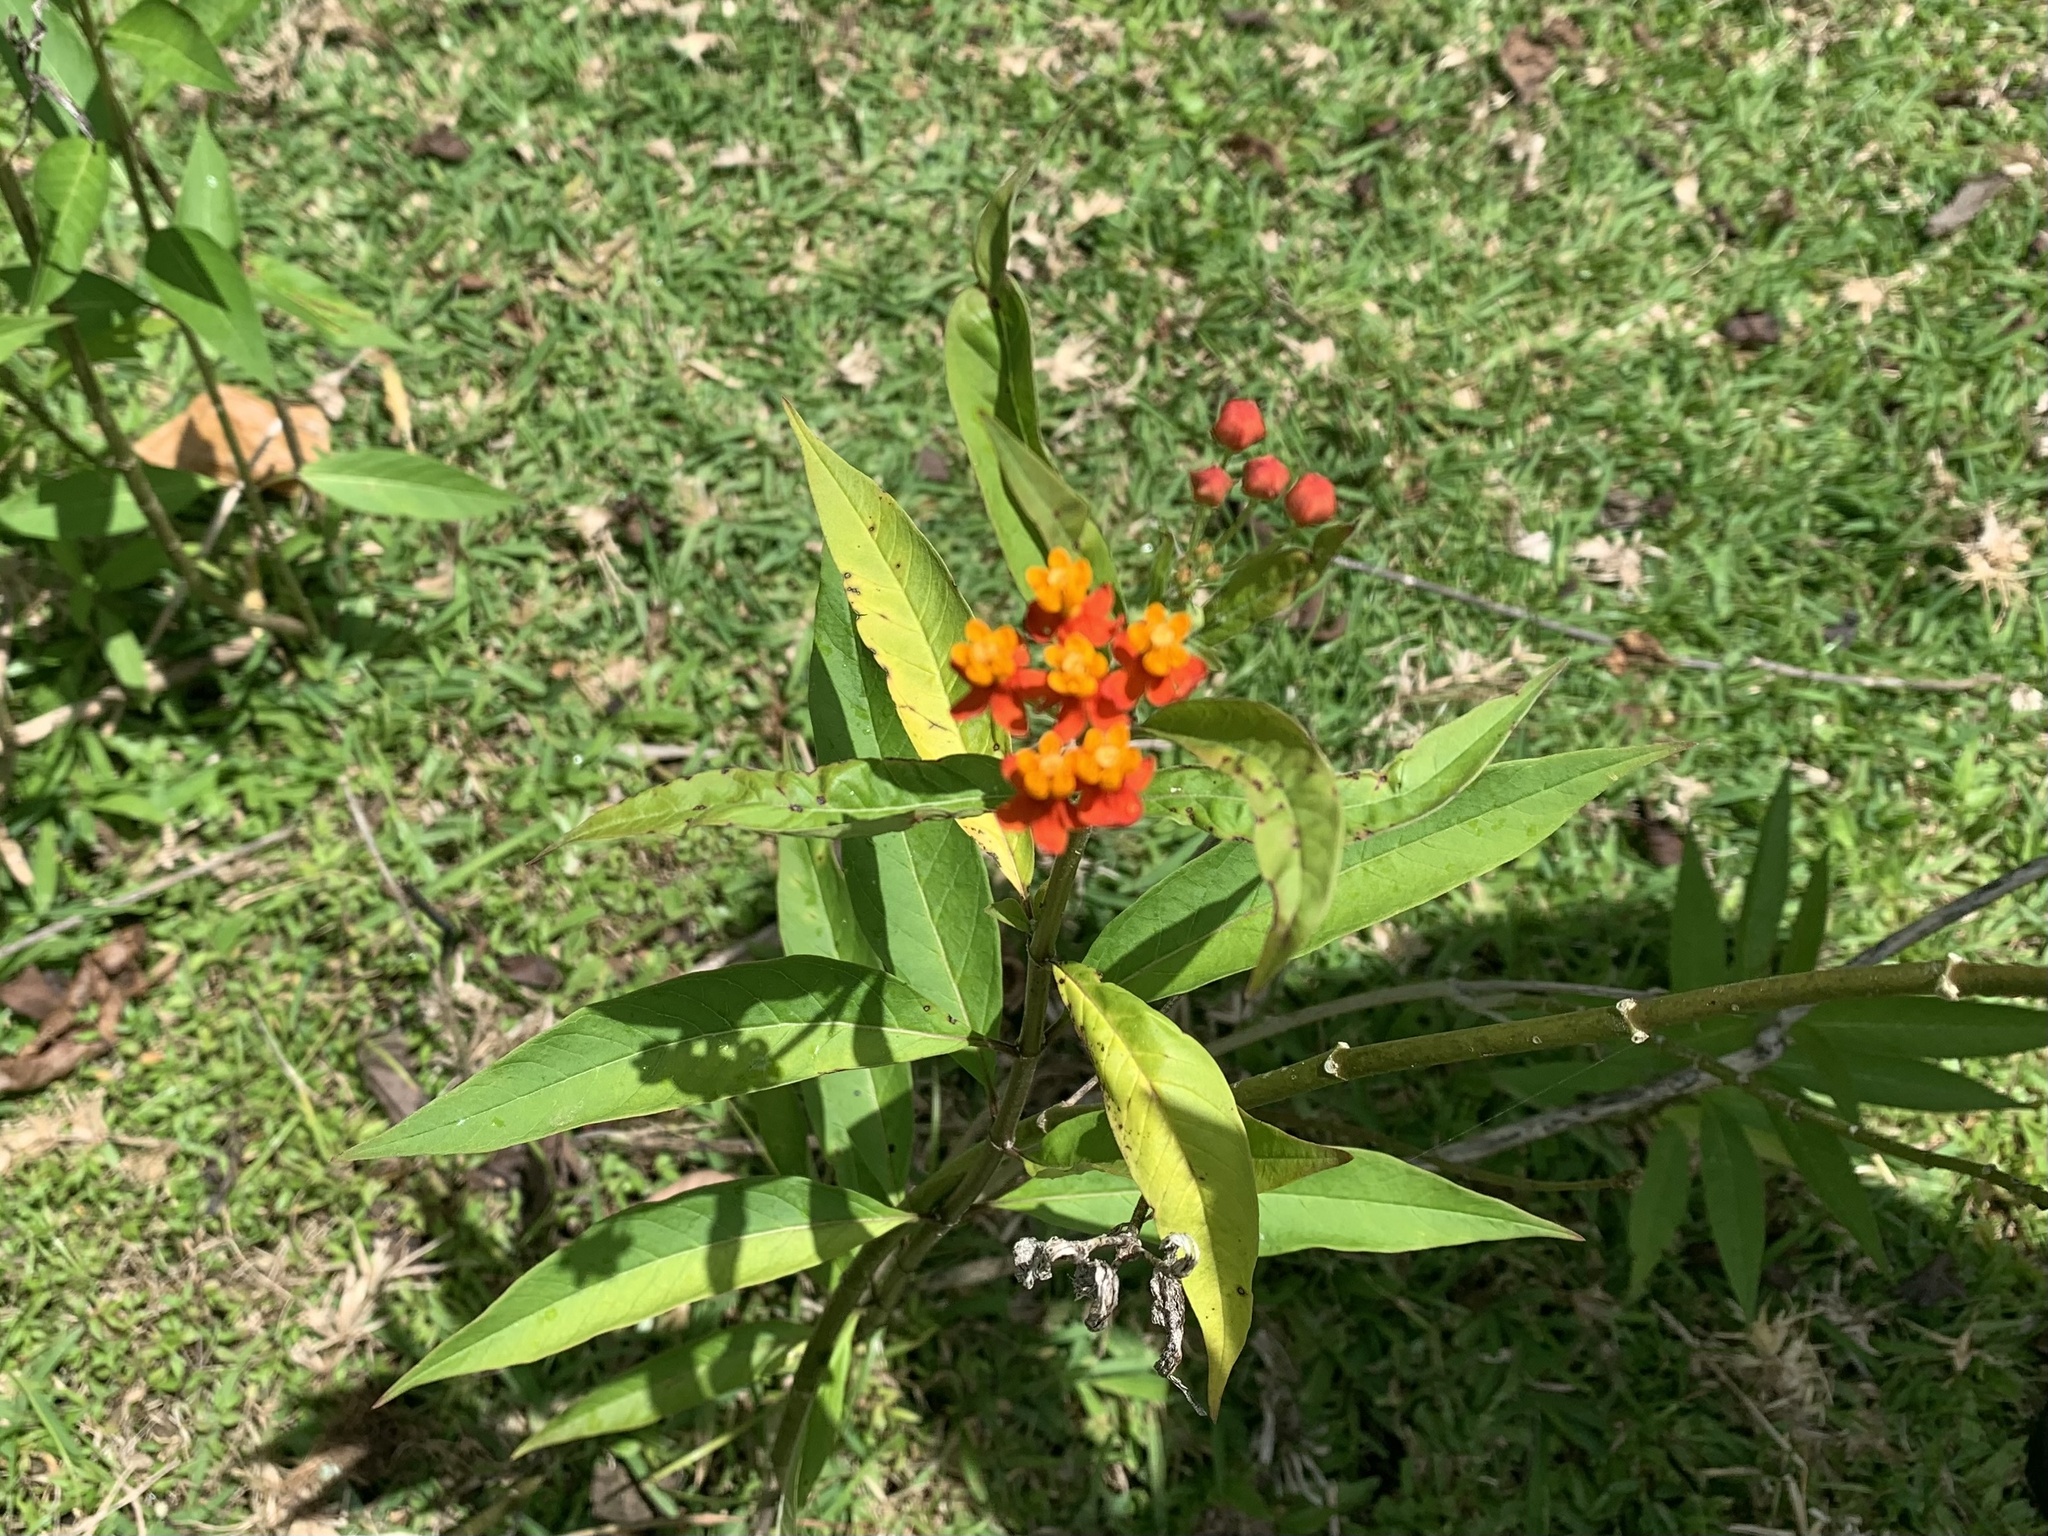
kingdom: Plantae
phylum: Tracheophyta
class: Magnoliopsida
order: Gentianales
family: Apocynaceae
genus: Asclepias
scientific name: Asclepias curassavica
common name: Bloodflower
